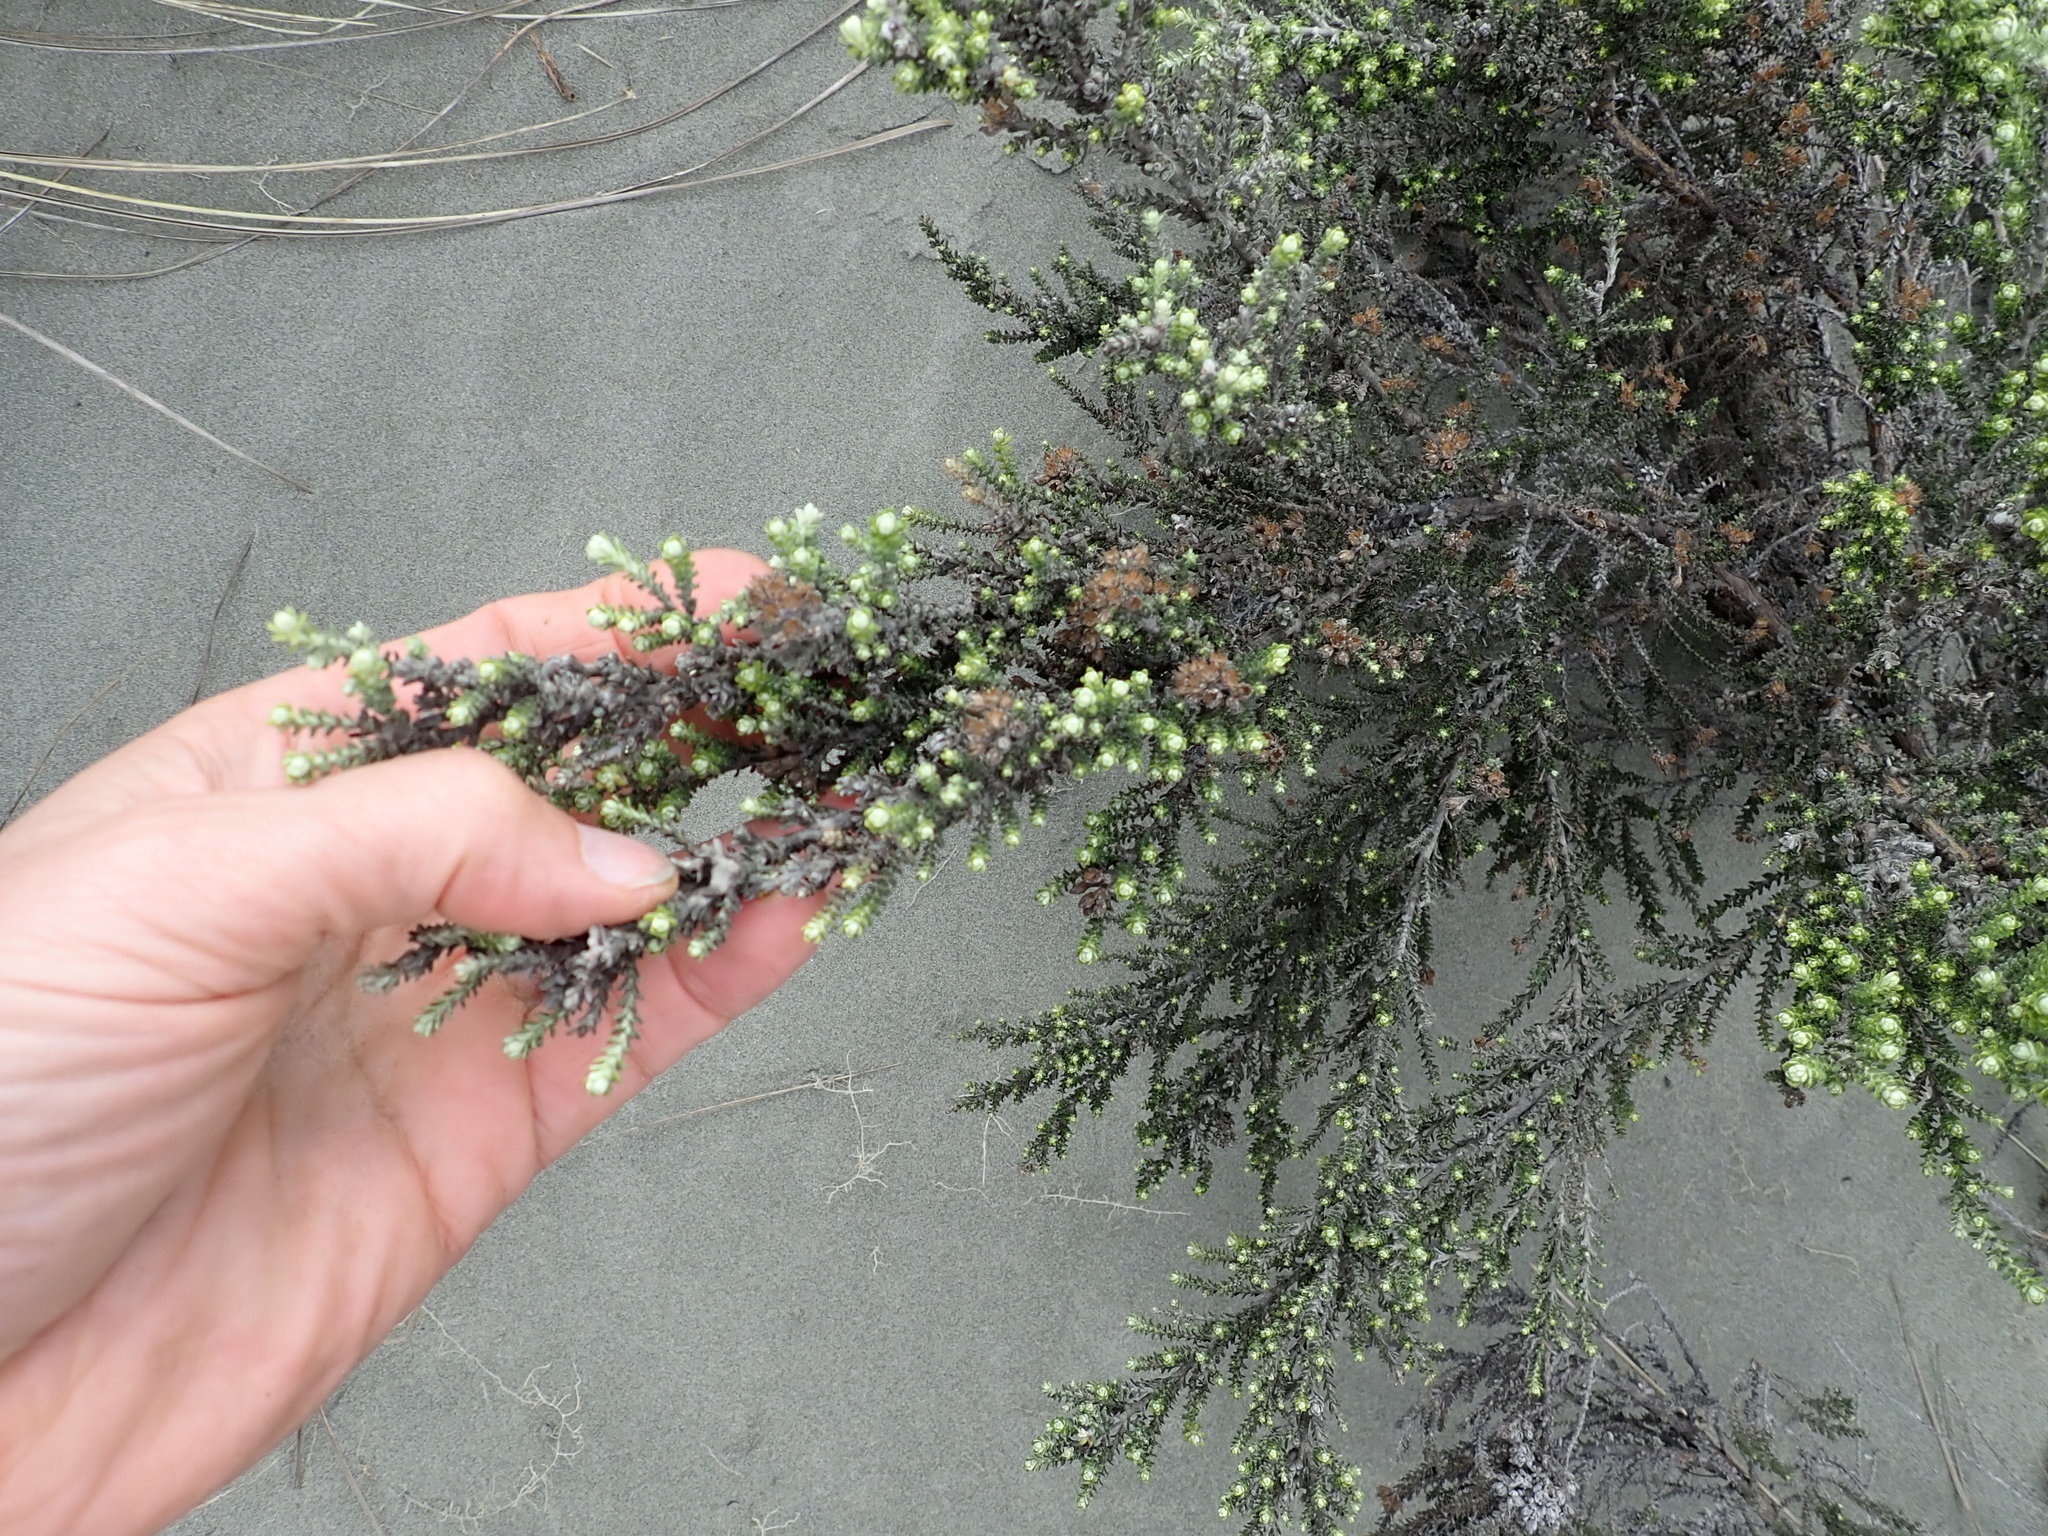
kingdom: Plantae
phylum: Tracheophyta
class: Magnoliopsida
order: Asterales
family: Asteraceae
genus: Ozothamnus
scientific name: Ozothamnus leptophyllus
